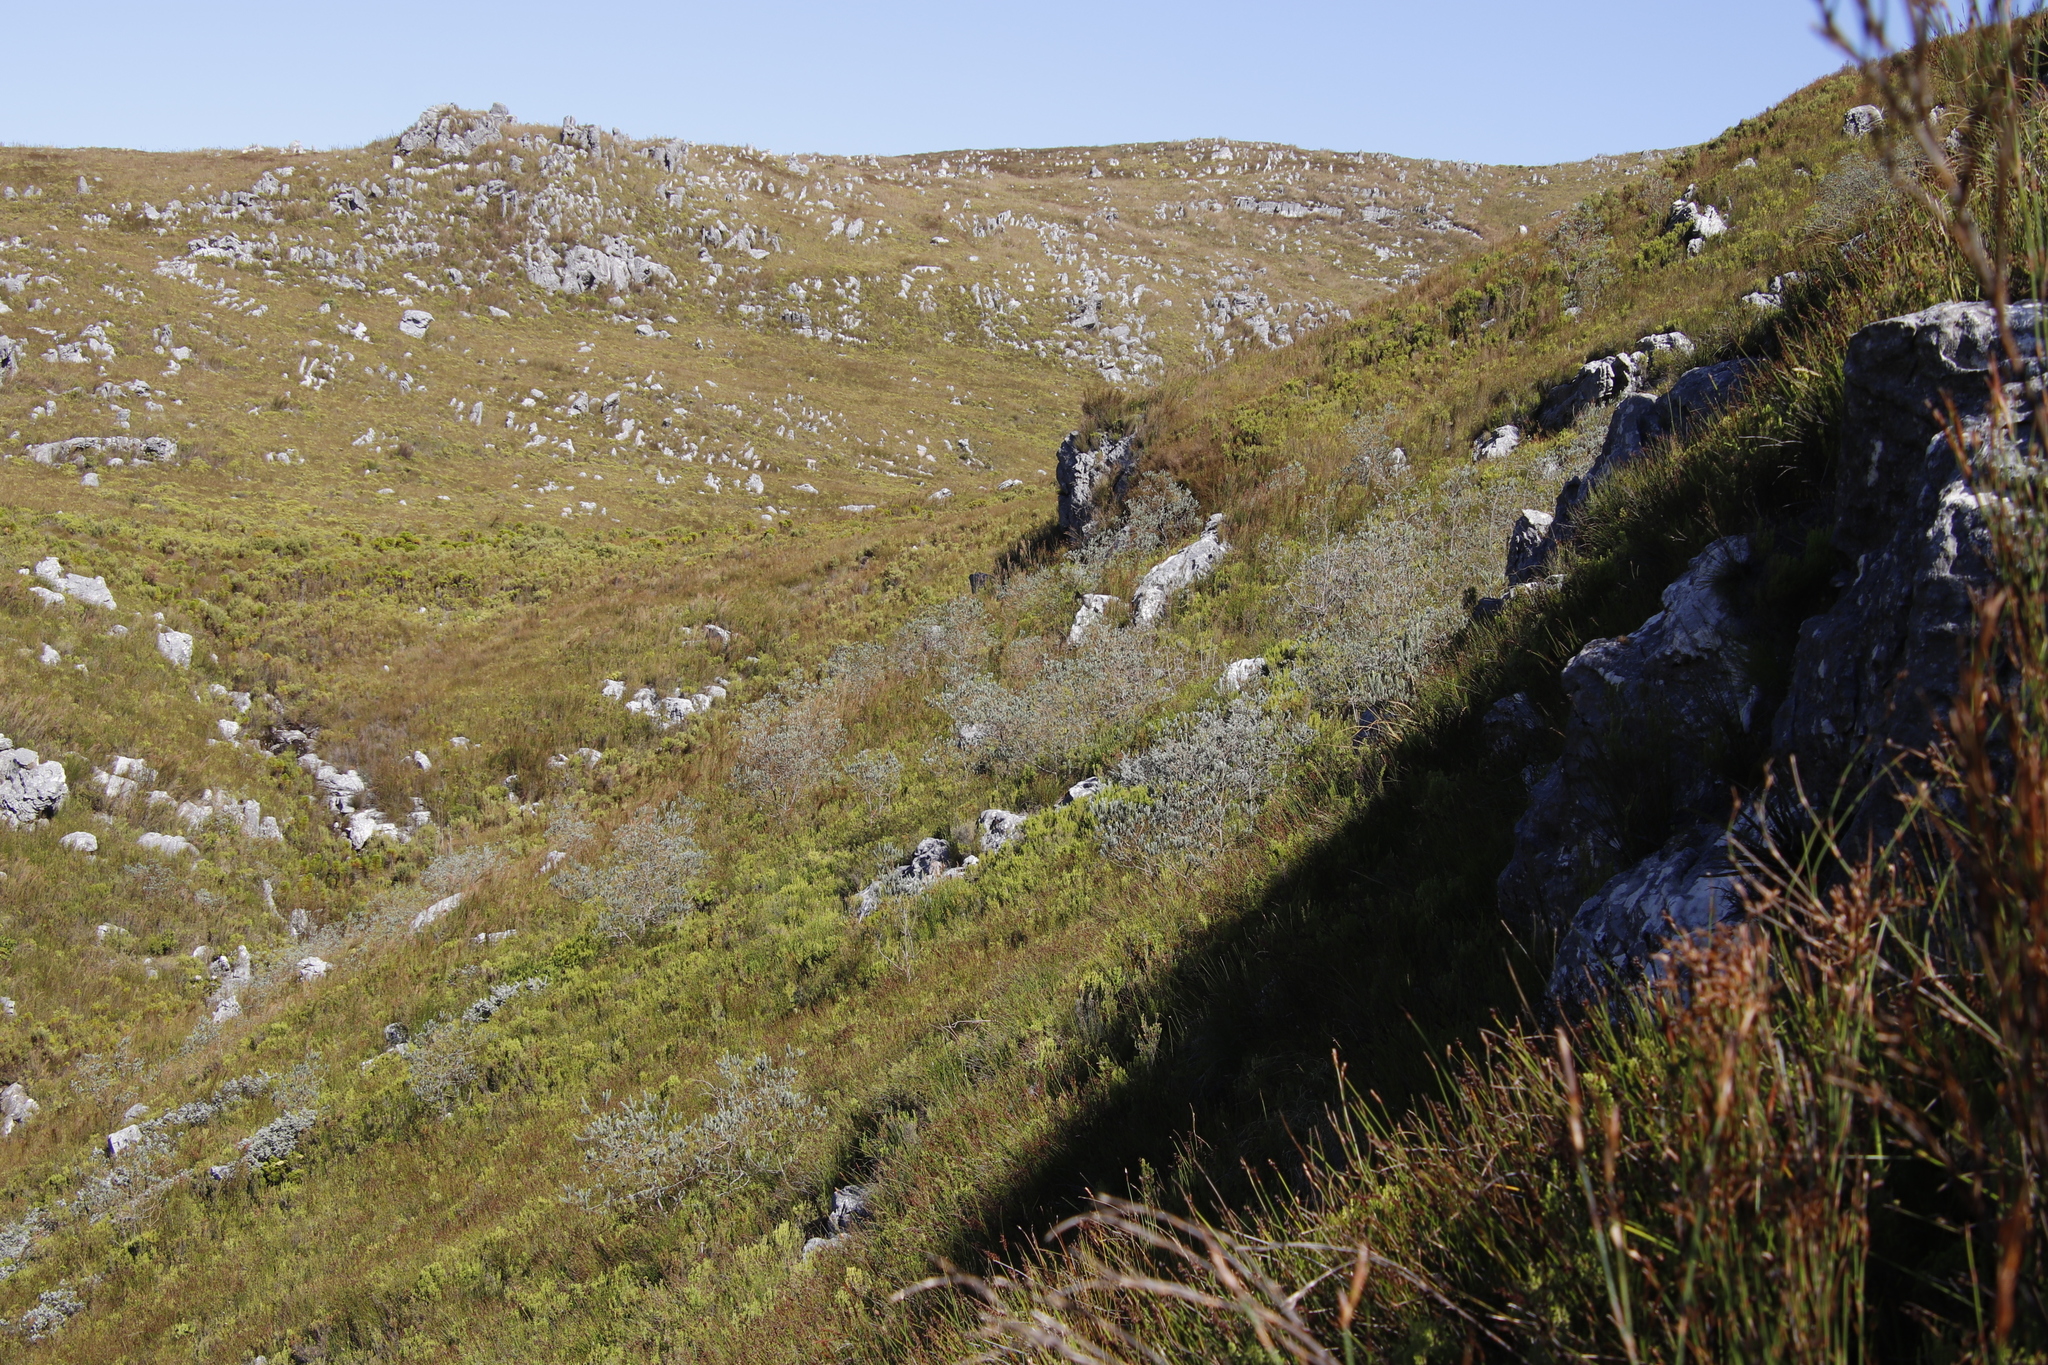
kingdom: Plantae
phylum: Tracheophyta
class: Magnoliopsida
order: Fabales
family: Fabaceae
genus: Liparia
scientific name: Liparia calycina
